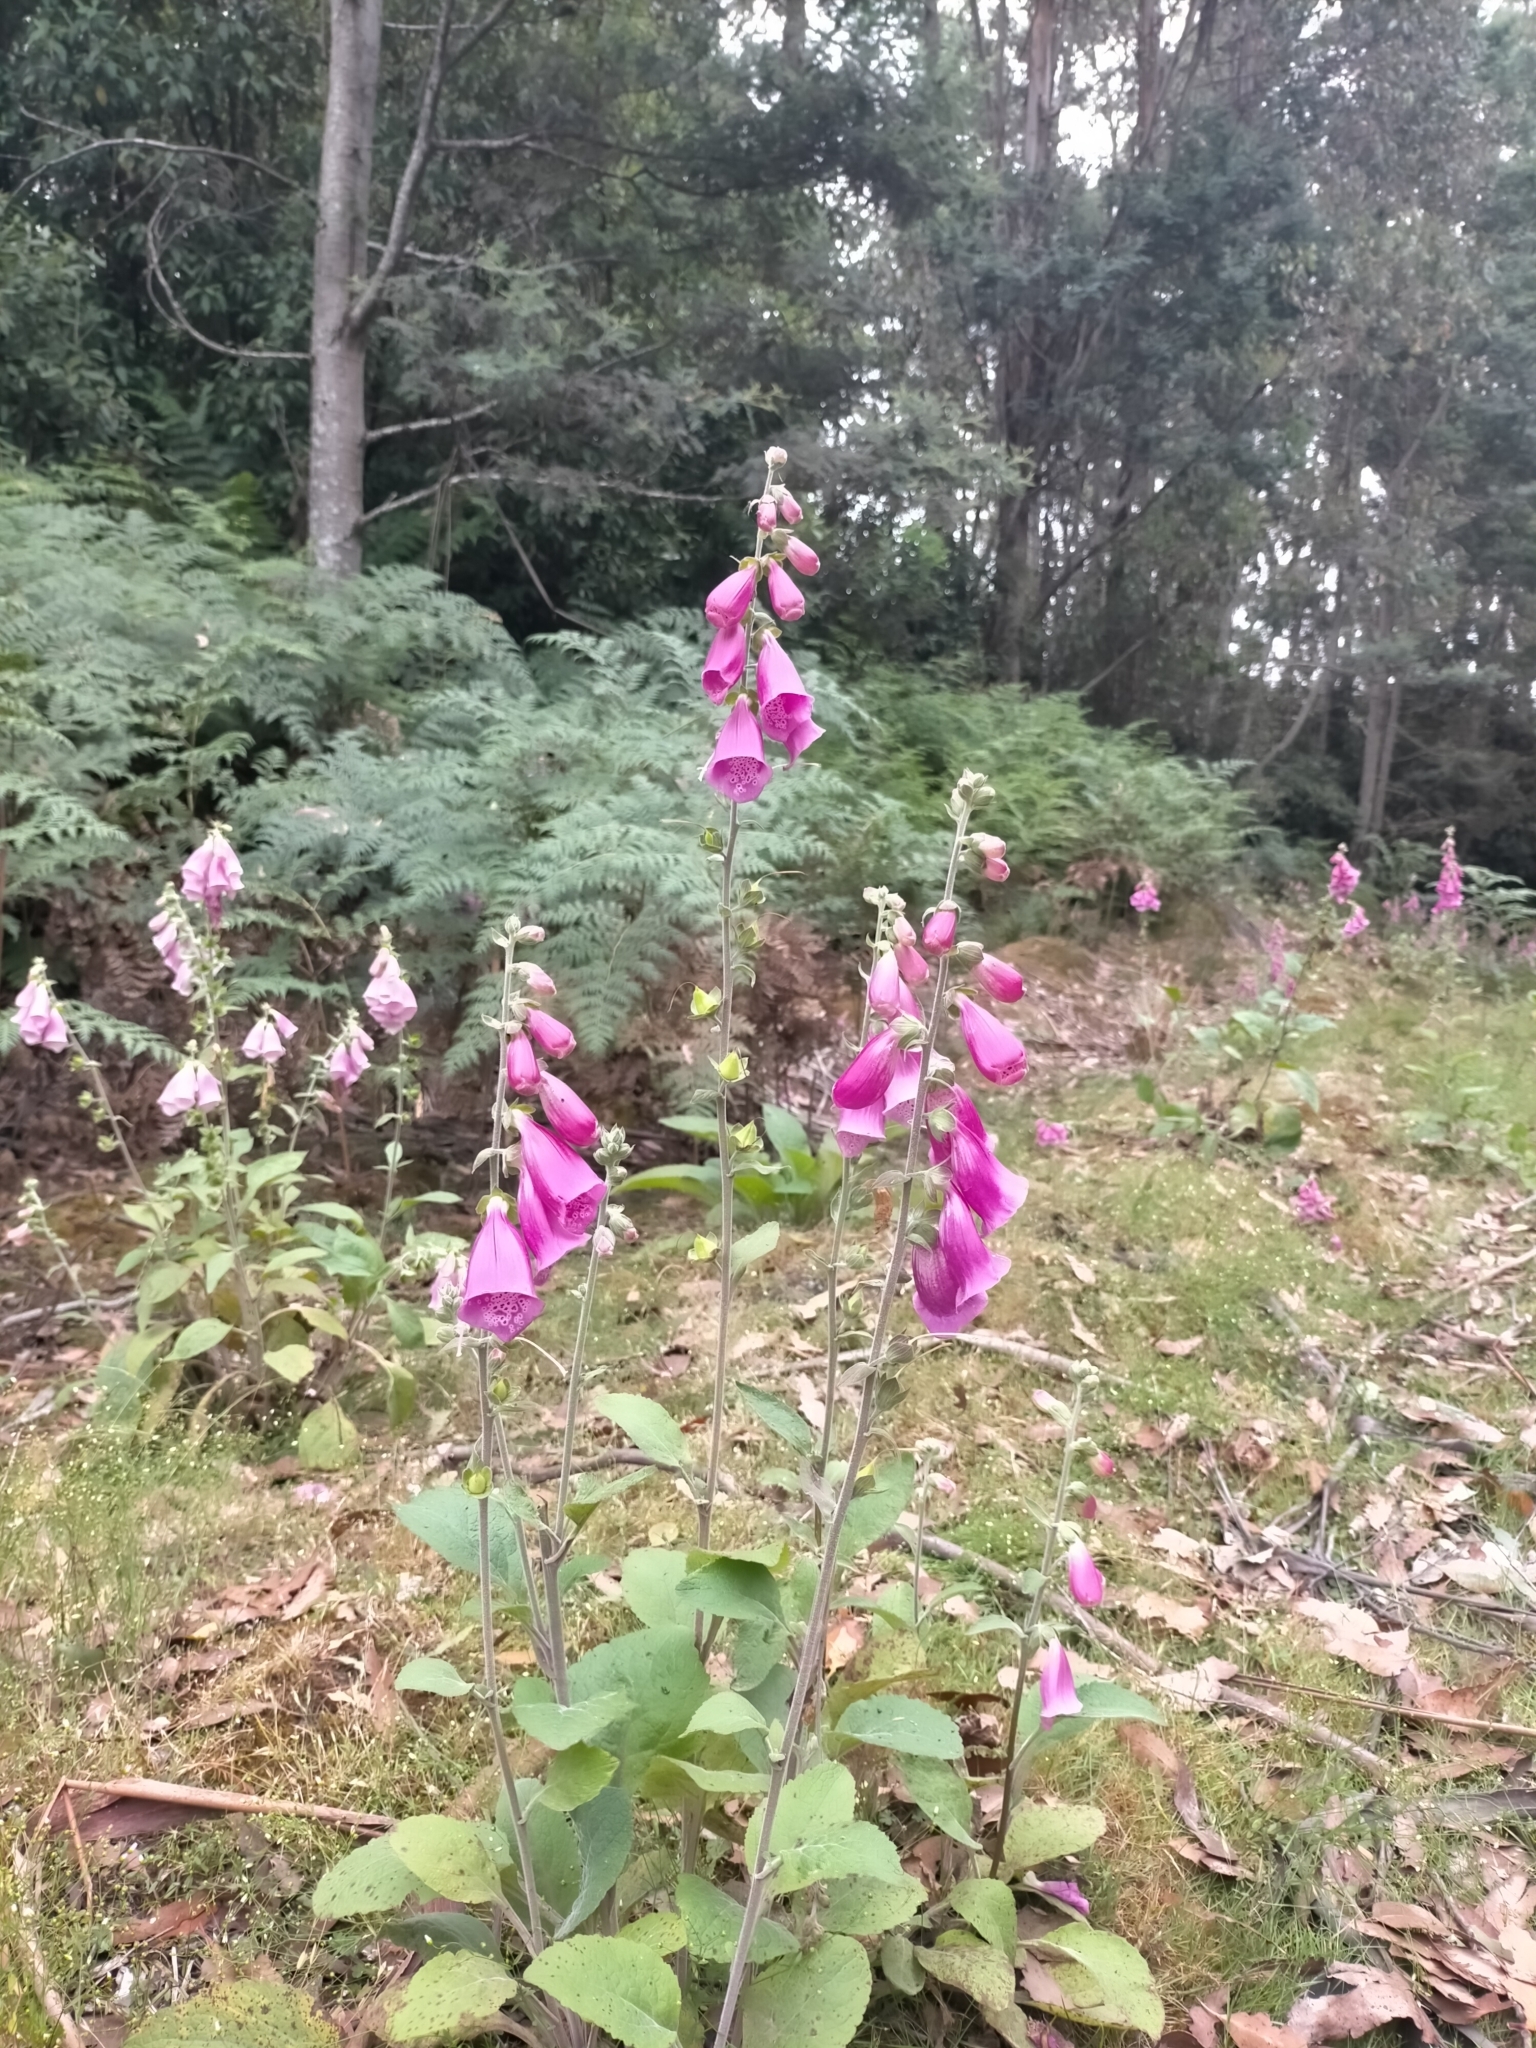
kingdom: Plantae
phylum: Tracheophyta
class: Magnoliopsida
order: Lamiales
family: Plantaginaceae
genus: Digitalis
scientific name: Digitalis purpurea
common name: Foxglove
